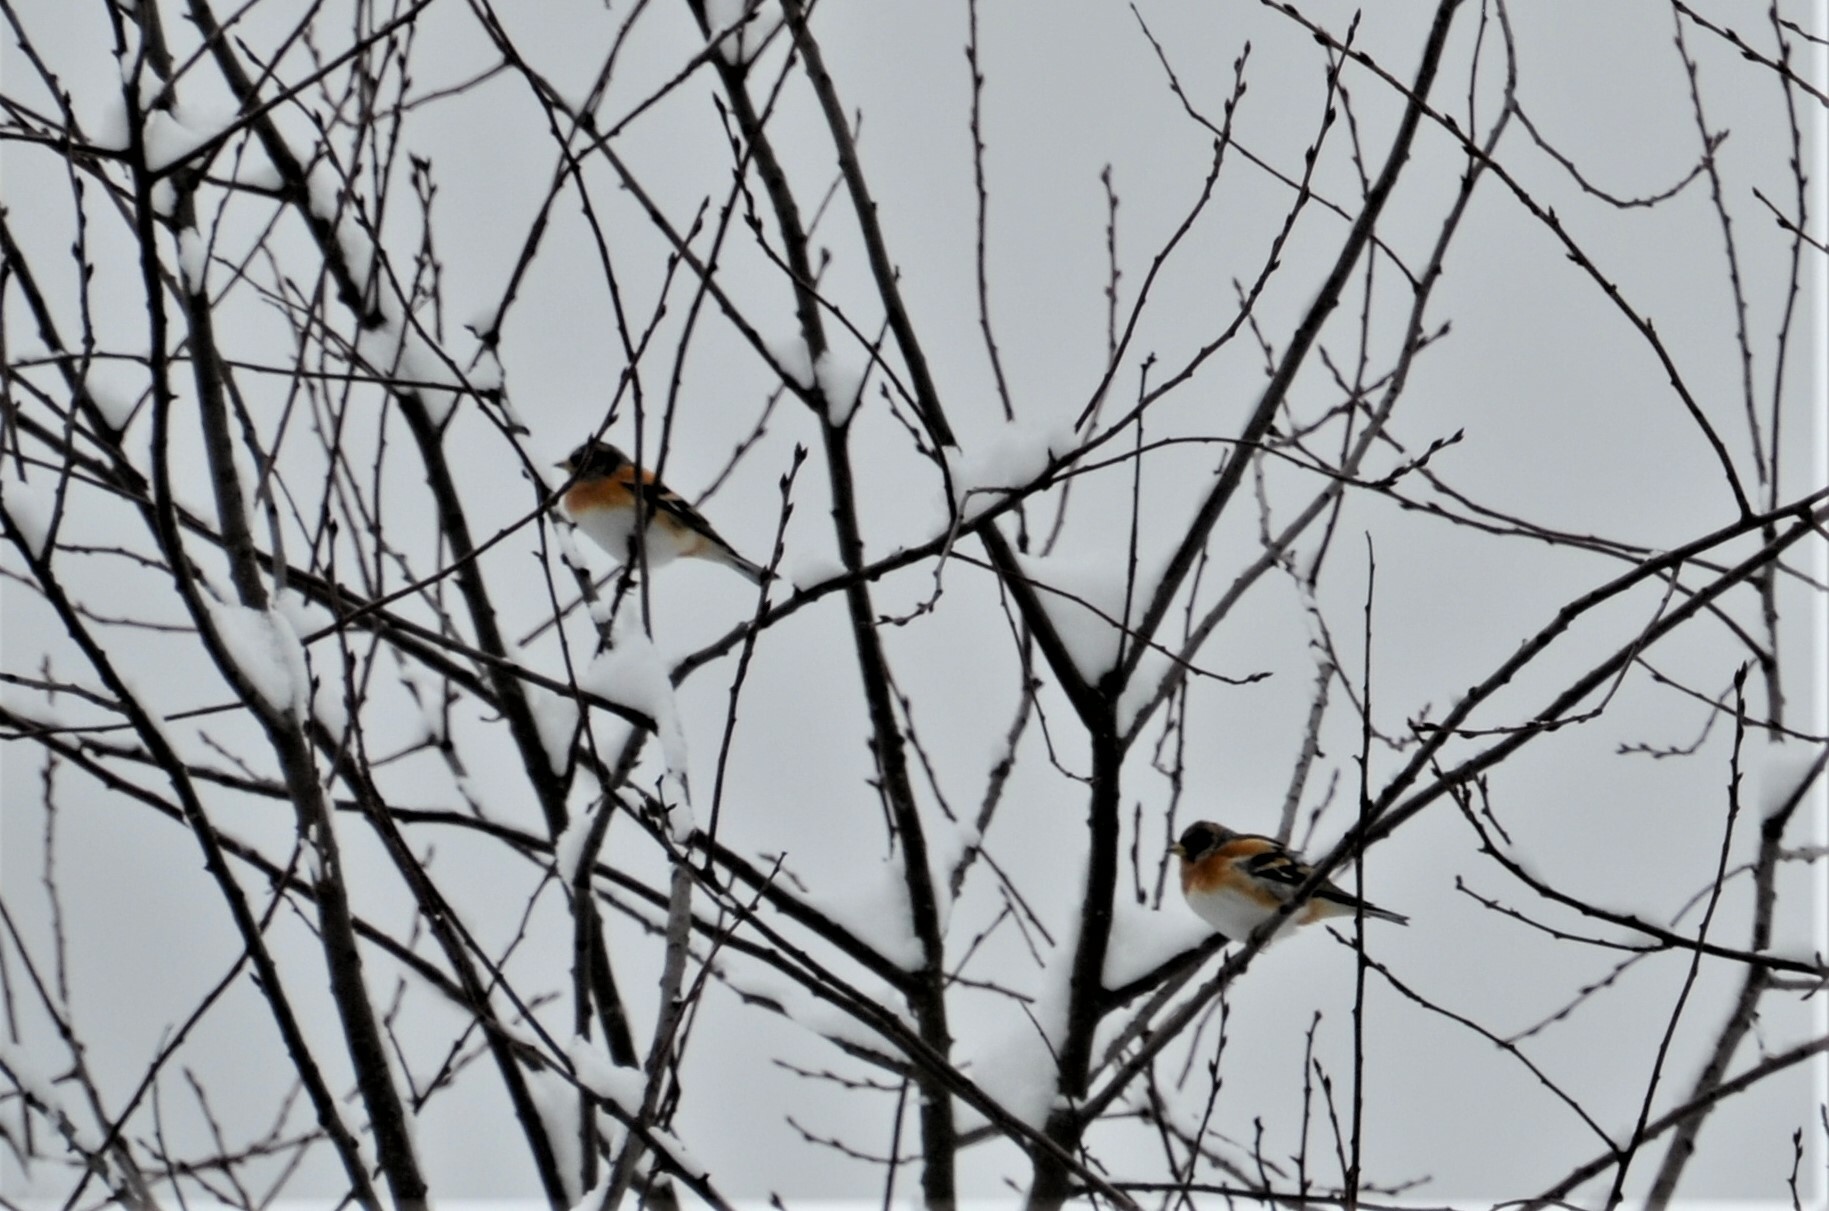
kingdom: Animalia
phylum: Chordata
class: Aves
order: Passeriformes
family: Fringillidae
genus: Fringilla
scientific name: Fringilla montifringilla
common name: Brambling
